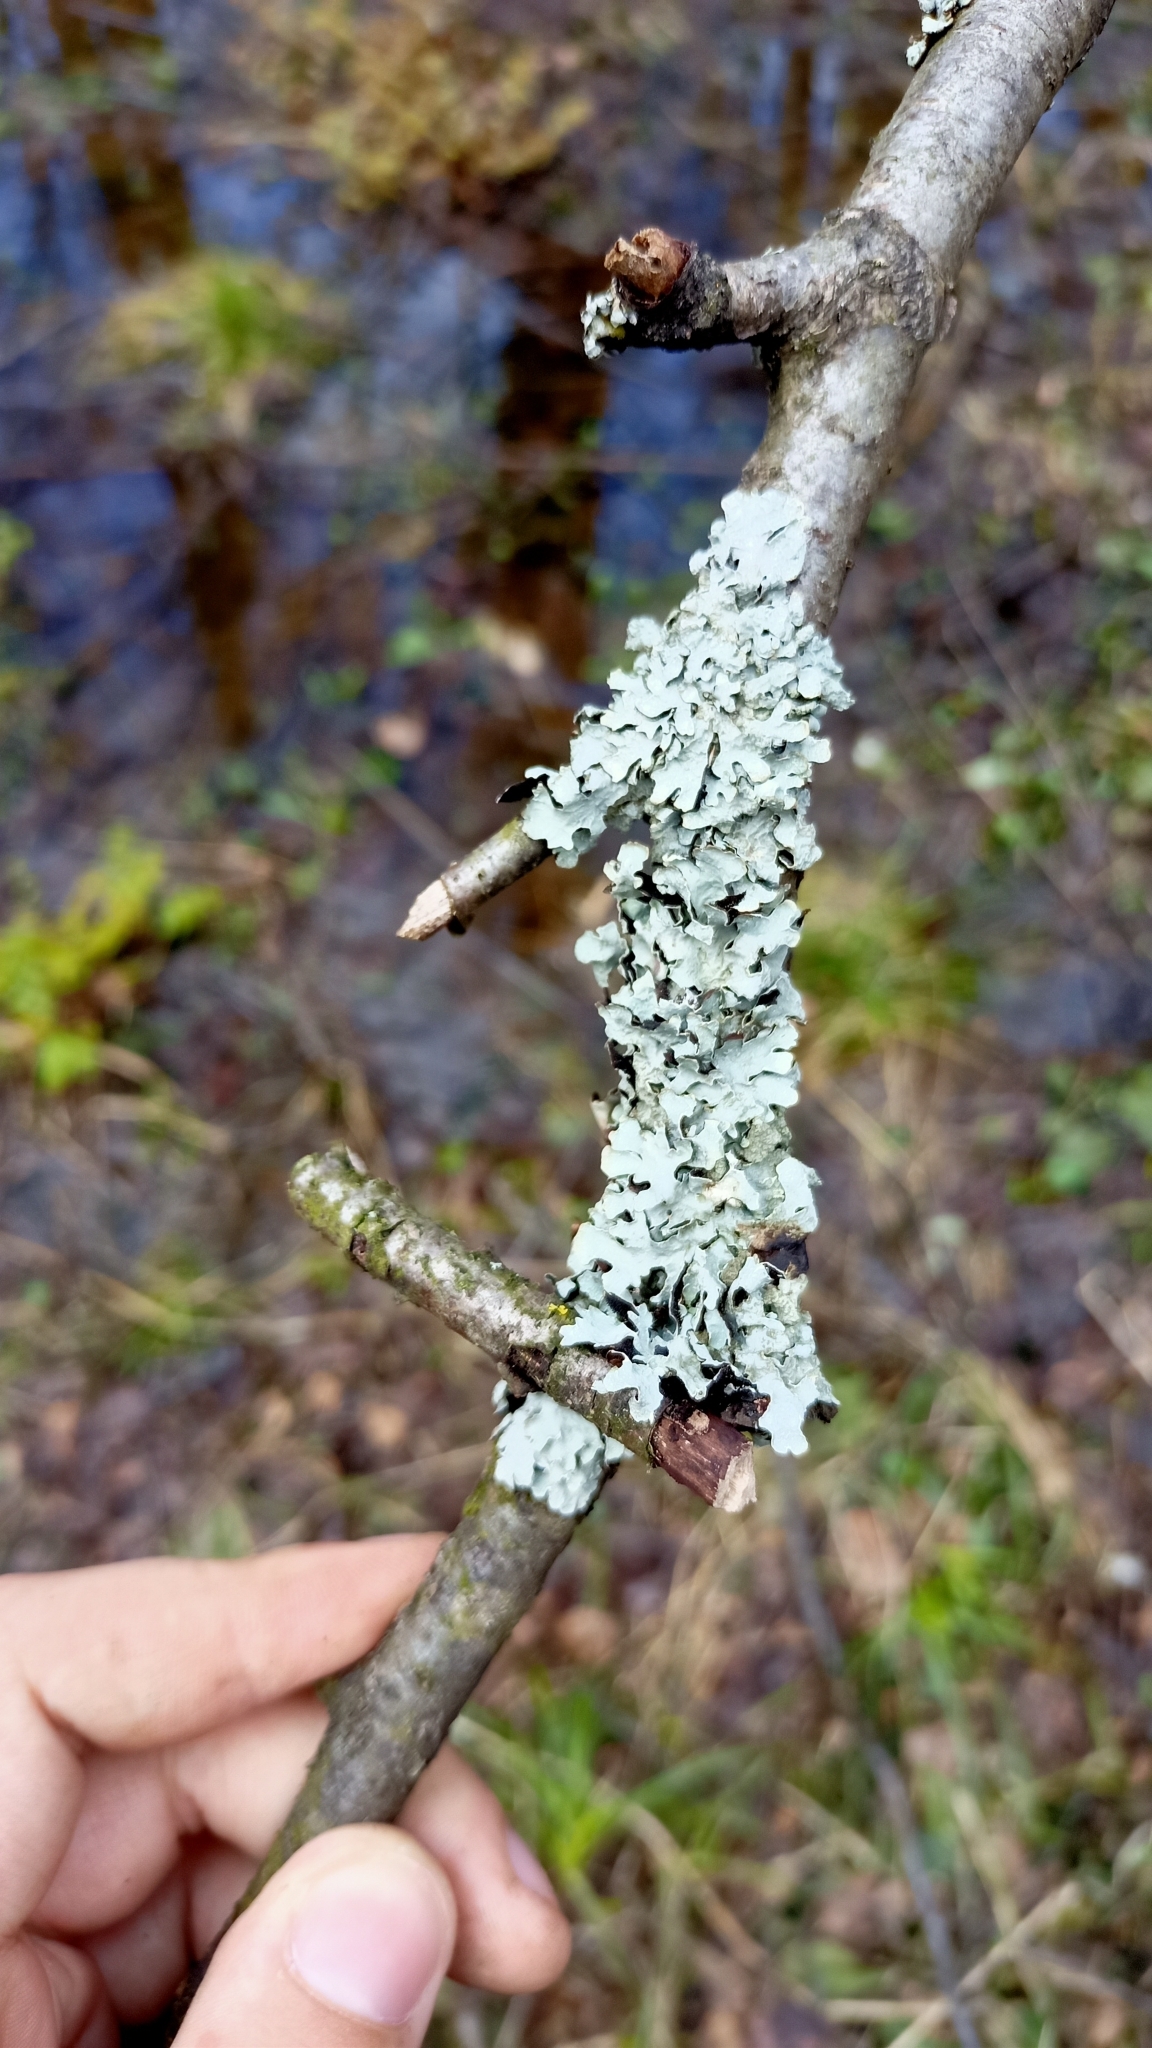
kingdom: Fungi
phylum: Ascomycota
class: Lecanoromycetes
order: Lecanorales
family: Parmeliaceae
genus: Parmelia
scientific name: Parmelia sulcata
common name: Netted shield lichen
